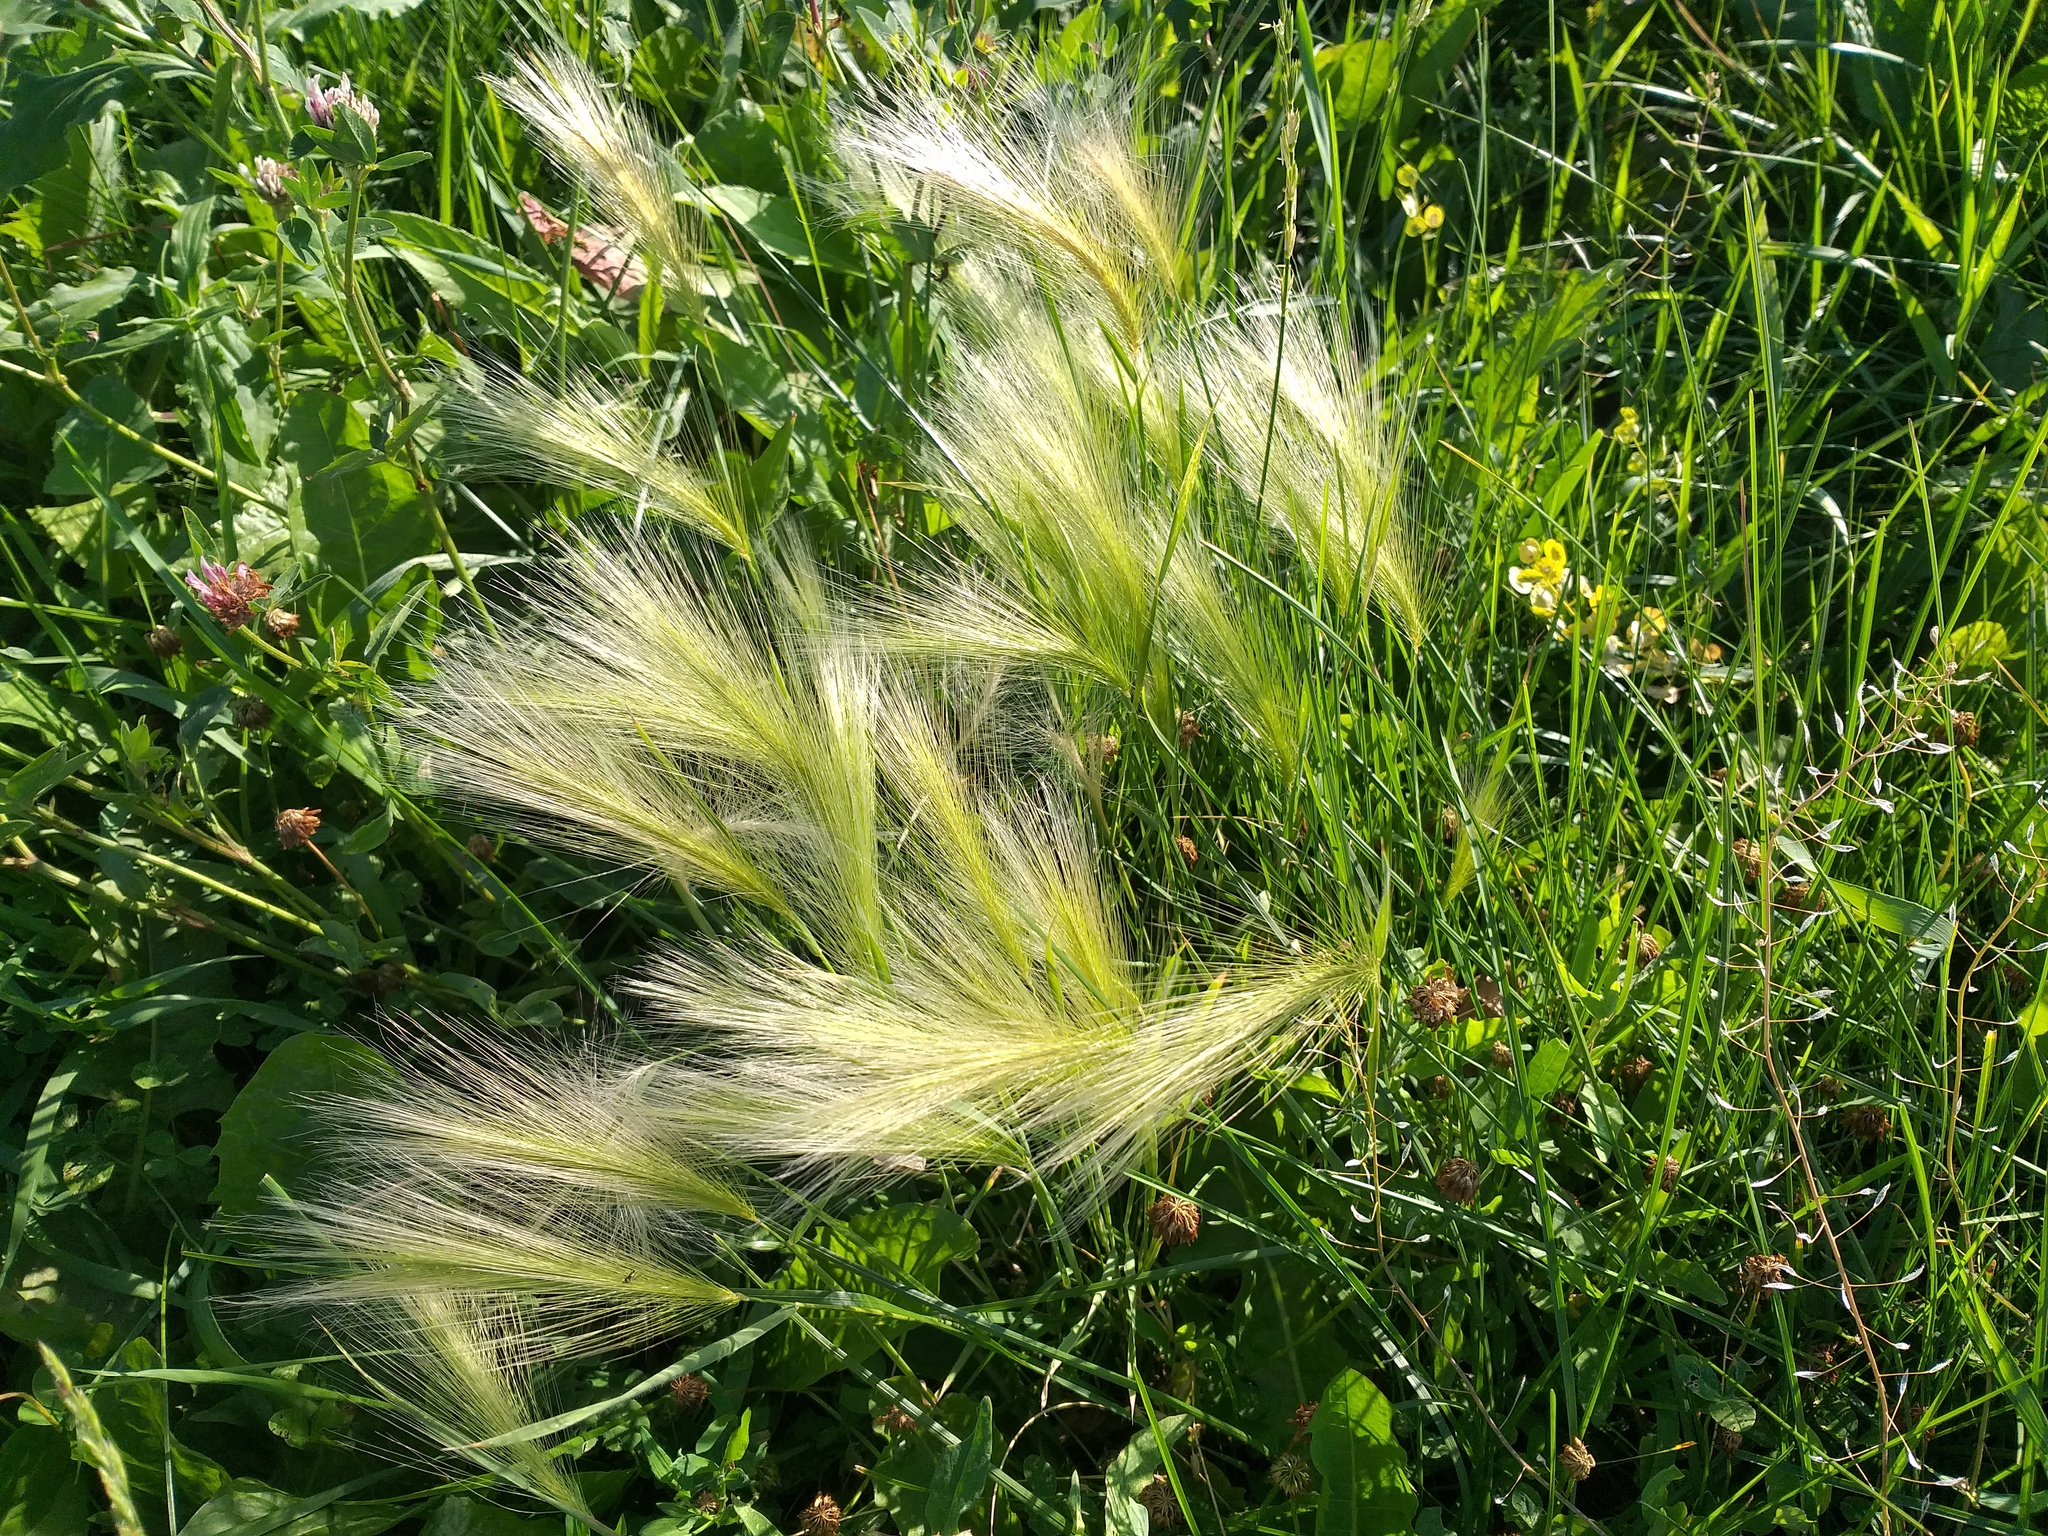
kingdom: Plantae
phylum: Tracheophyta
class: Liliopsida
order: Poales
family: Poaceae
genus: Hordeum
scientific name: Hordeum jubatum
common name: Foxtail barley
